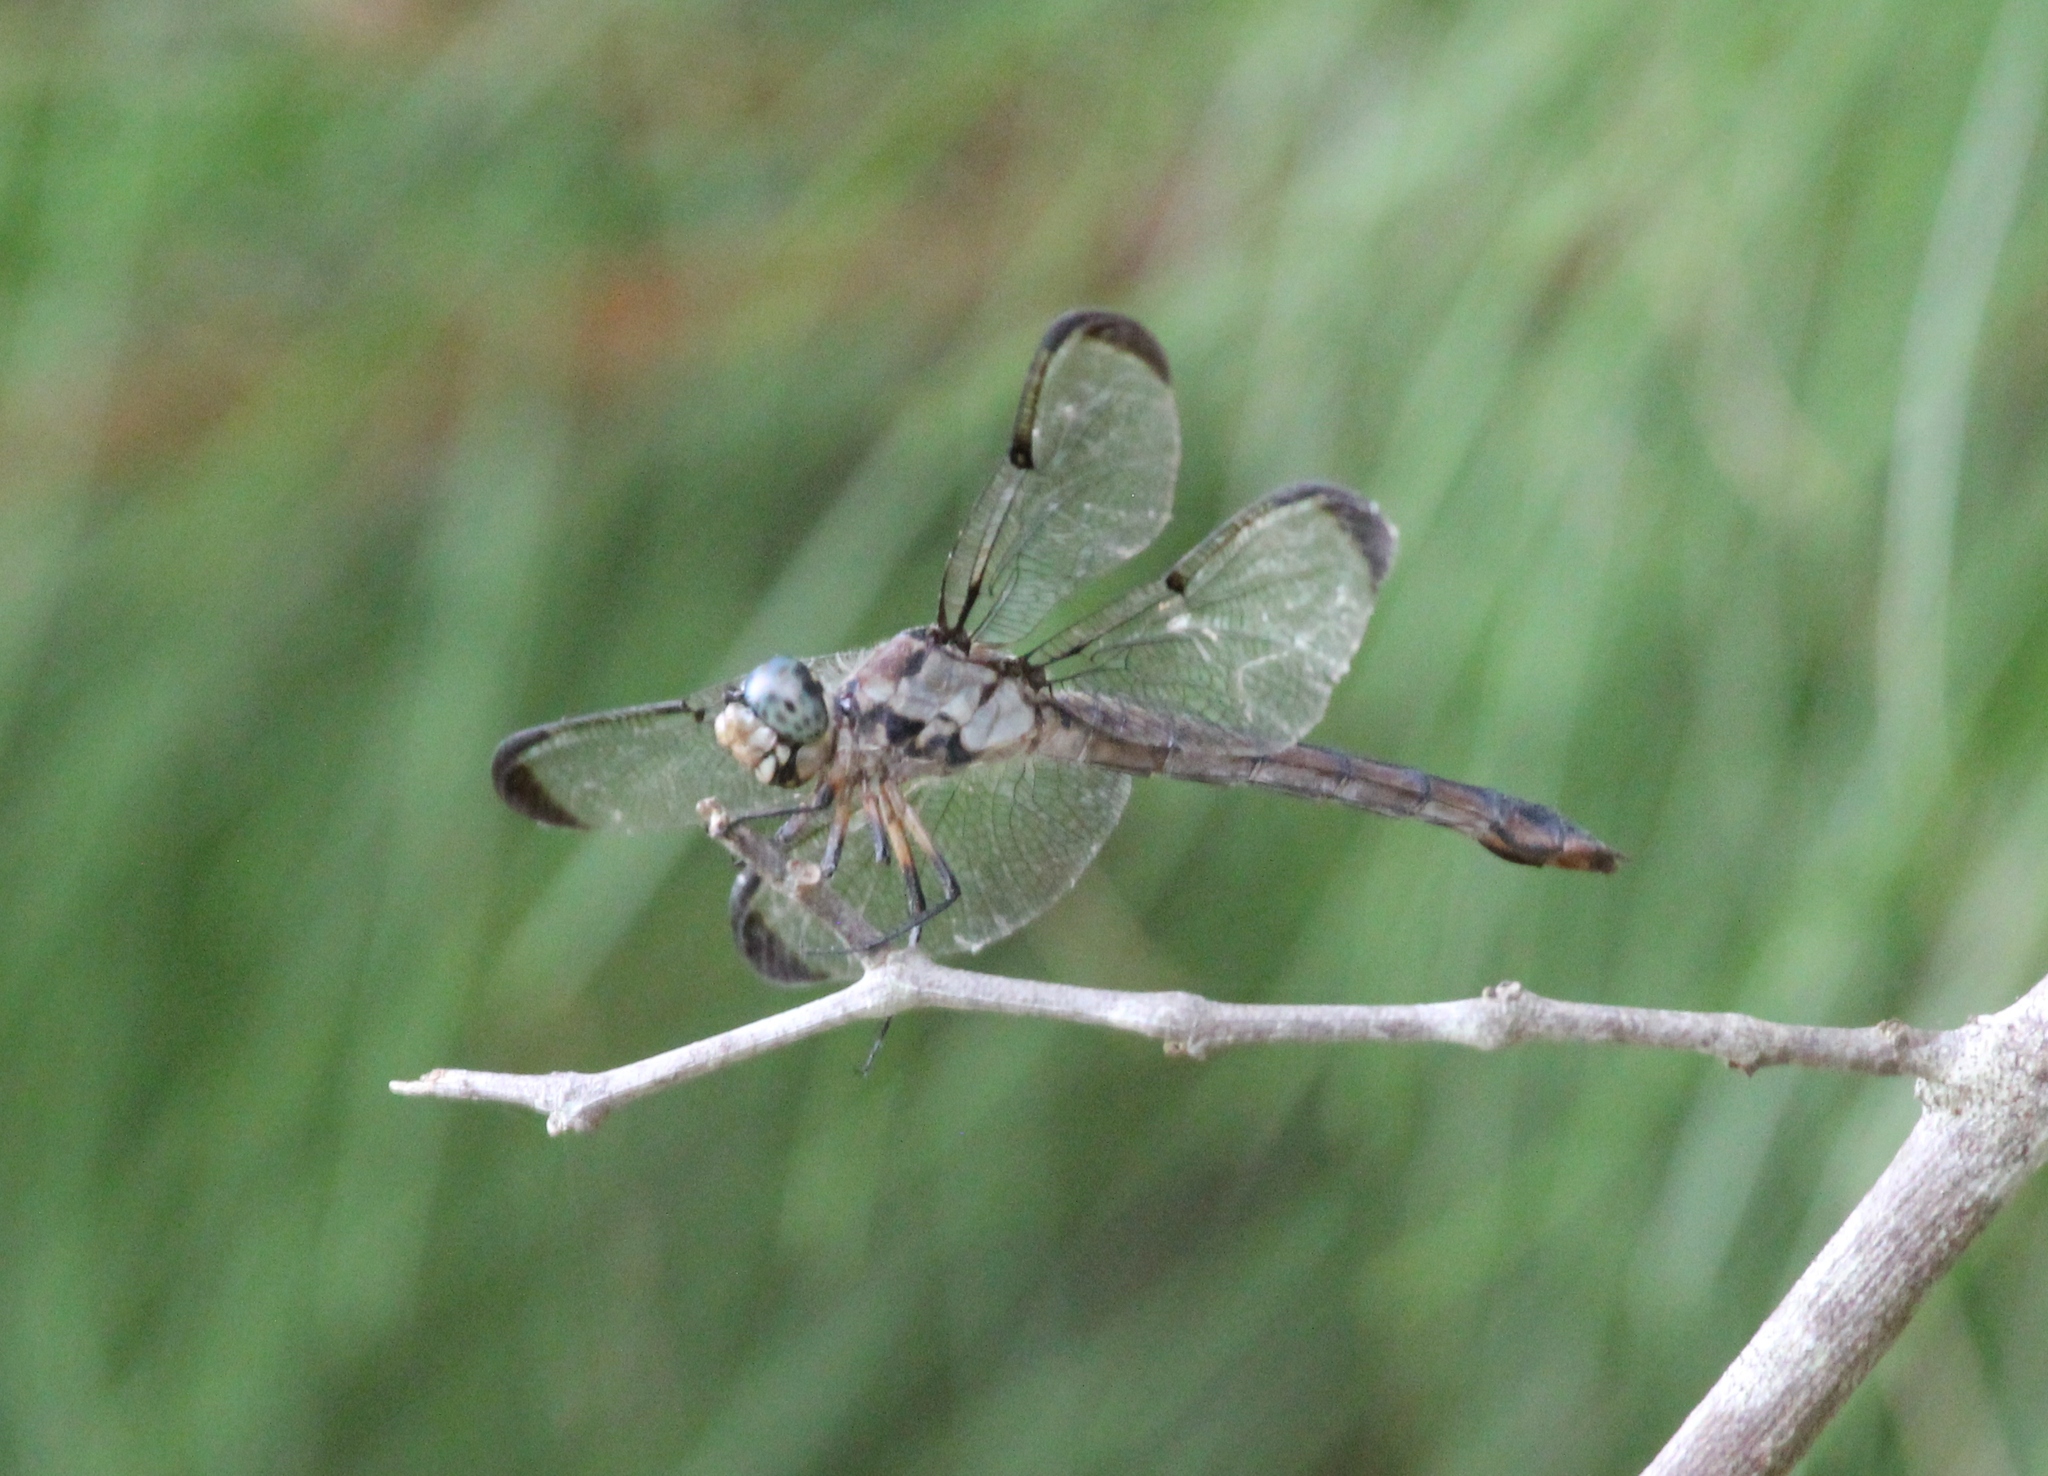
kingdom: Animalia
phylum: Arthropoda
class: Insecta
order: Odonata
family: Libellulidae
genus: Libellula
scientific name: Libellula vibrans
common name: Great blue skimmer
